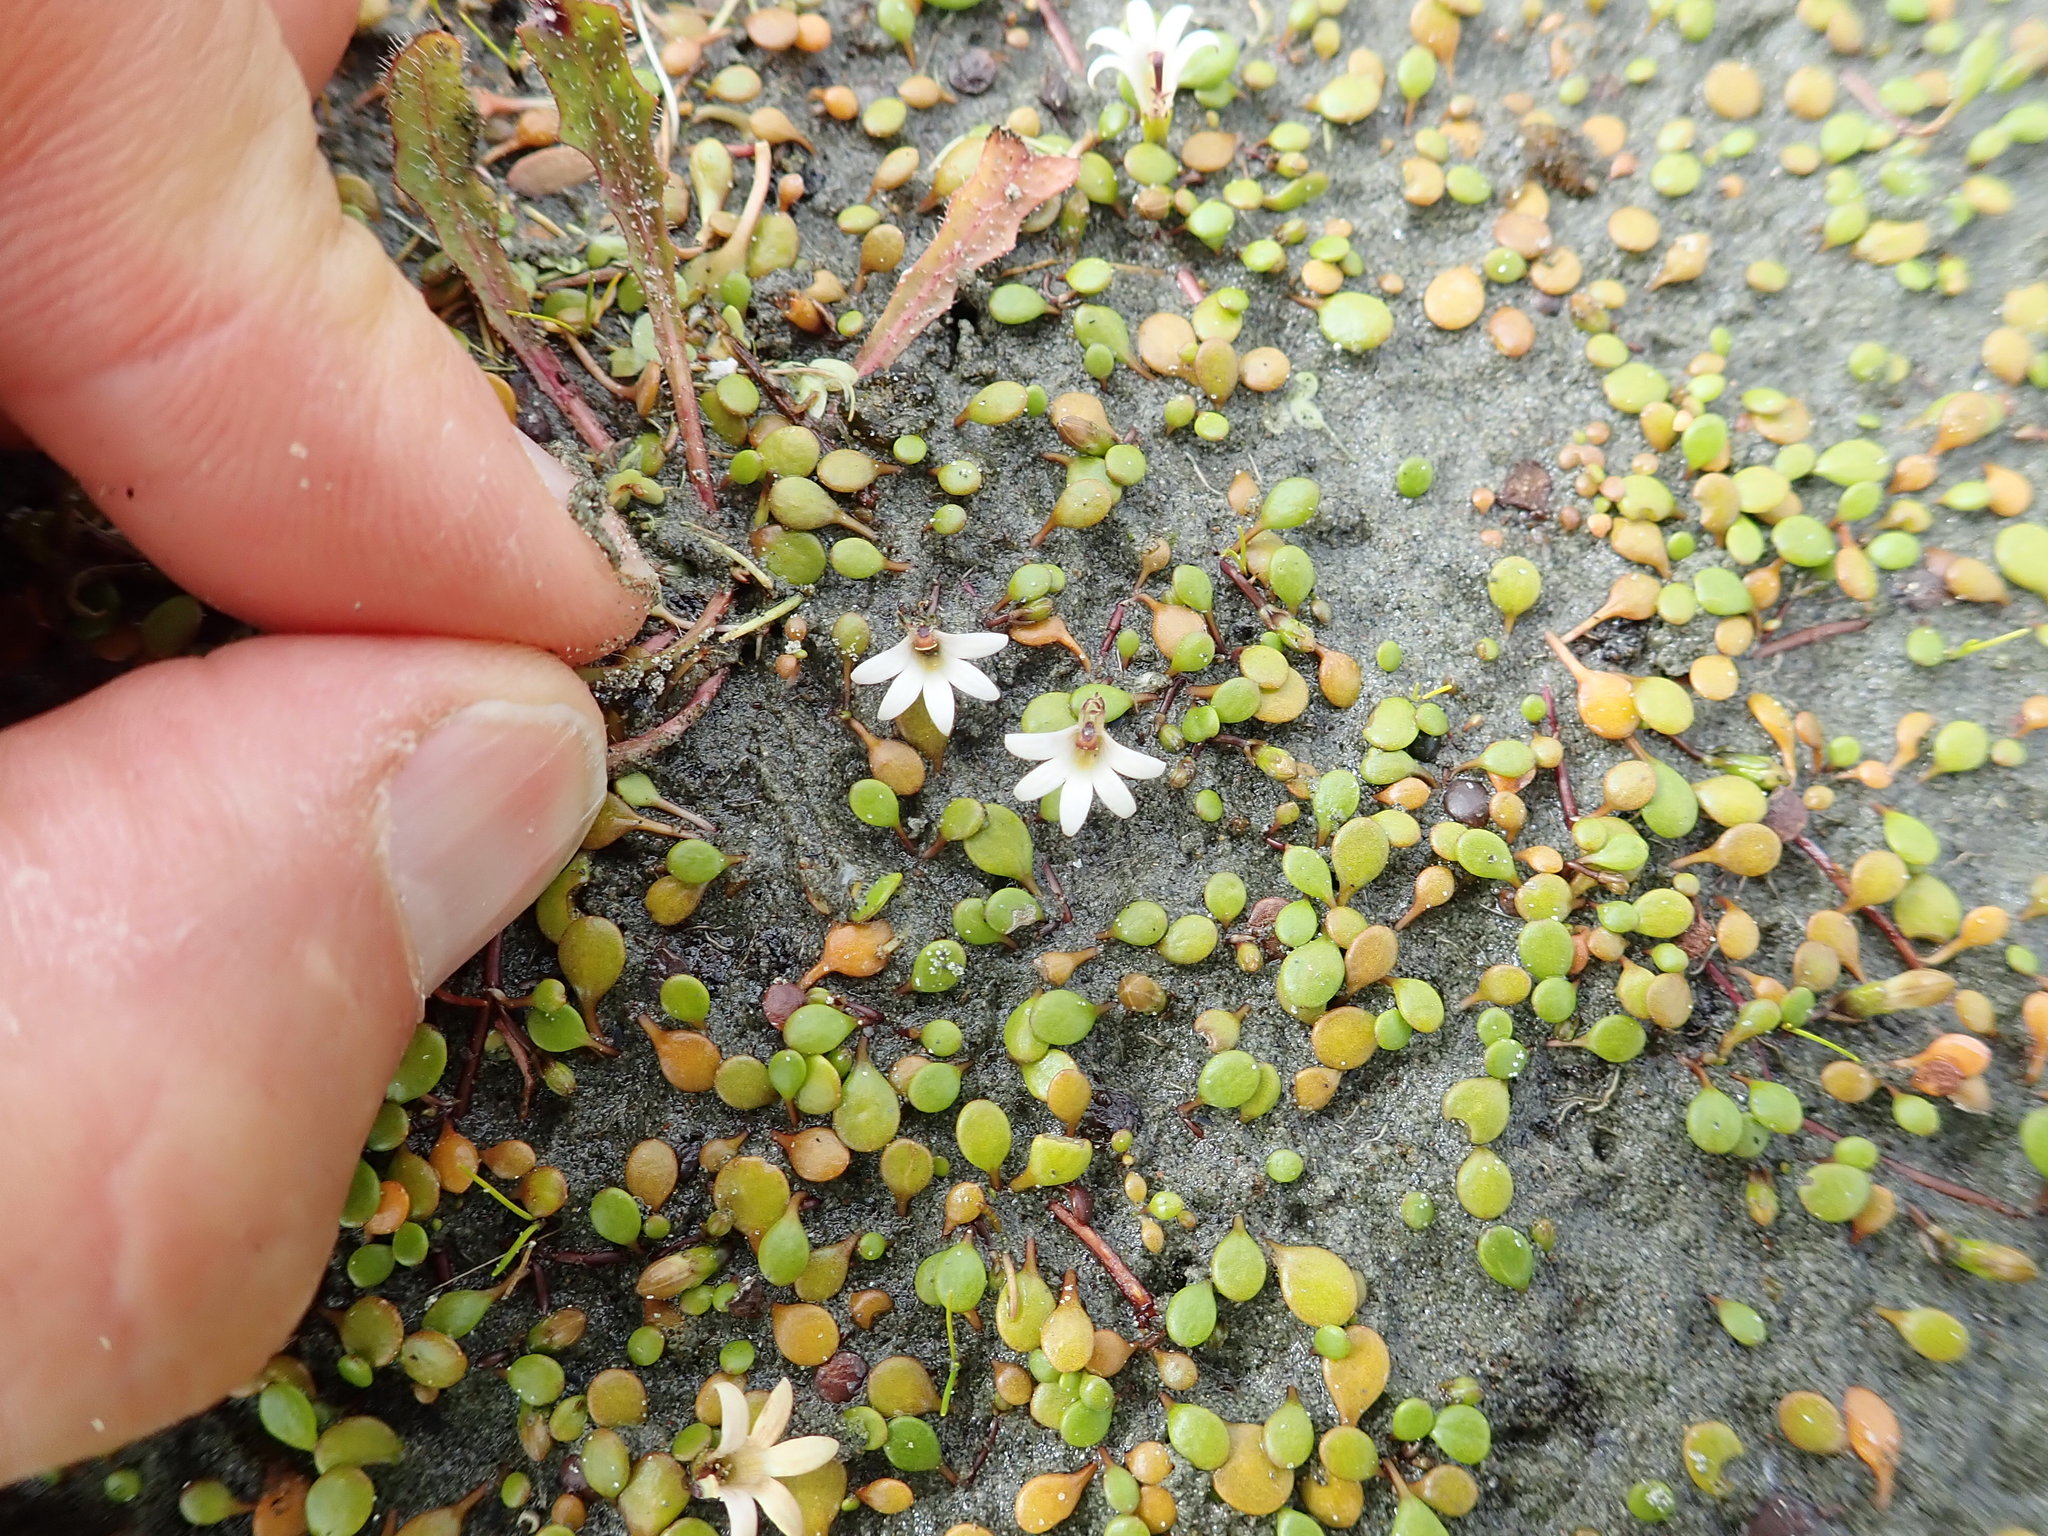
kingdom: Plantae
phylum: Tracheophyta
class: Magnoliopsida
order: Asterales
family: Goodeniaceae
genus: Goodenia
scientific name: Goodenia heenanii
